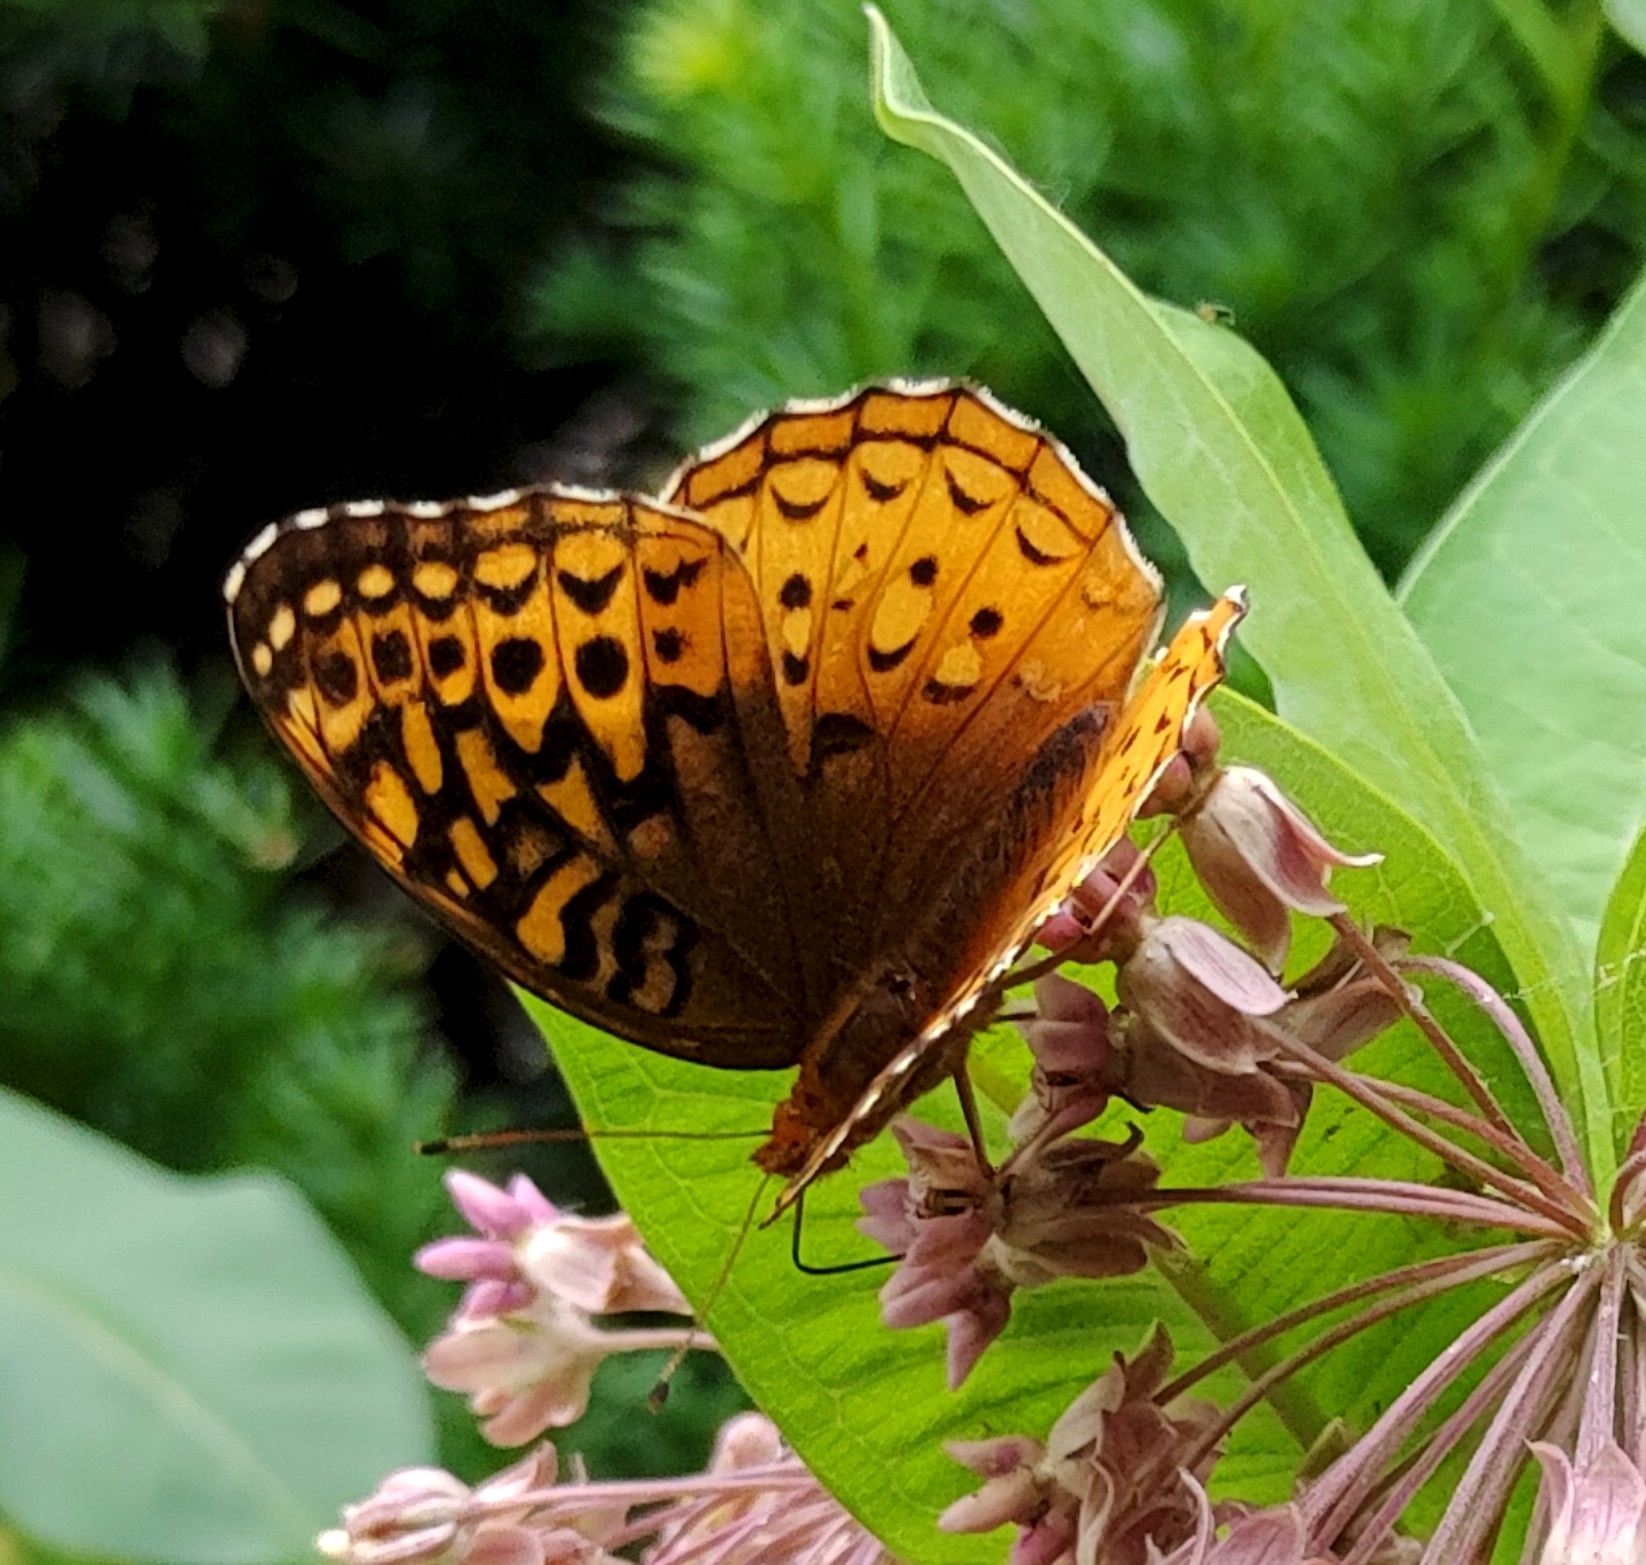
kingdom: Animalia
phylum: Arthropoda
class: Insecta
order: Lepidoptera
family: Nymphalidae
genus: Speyeria
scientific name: Speyeria cybele
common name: Great spangled fritillary
